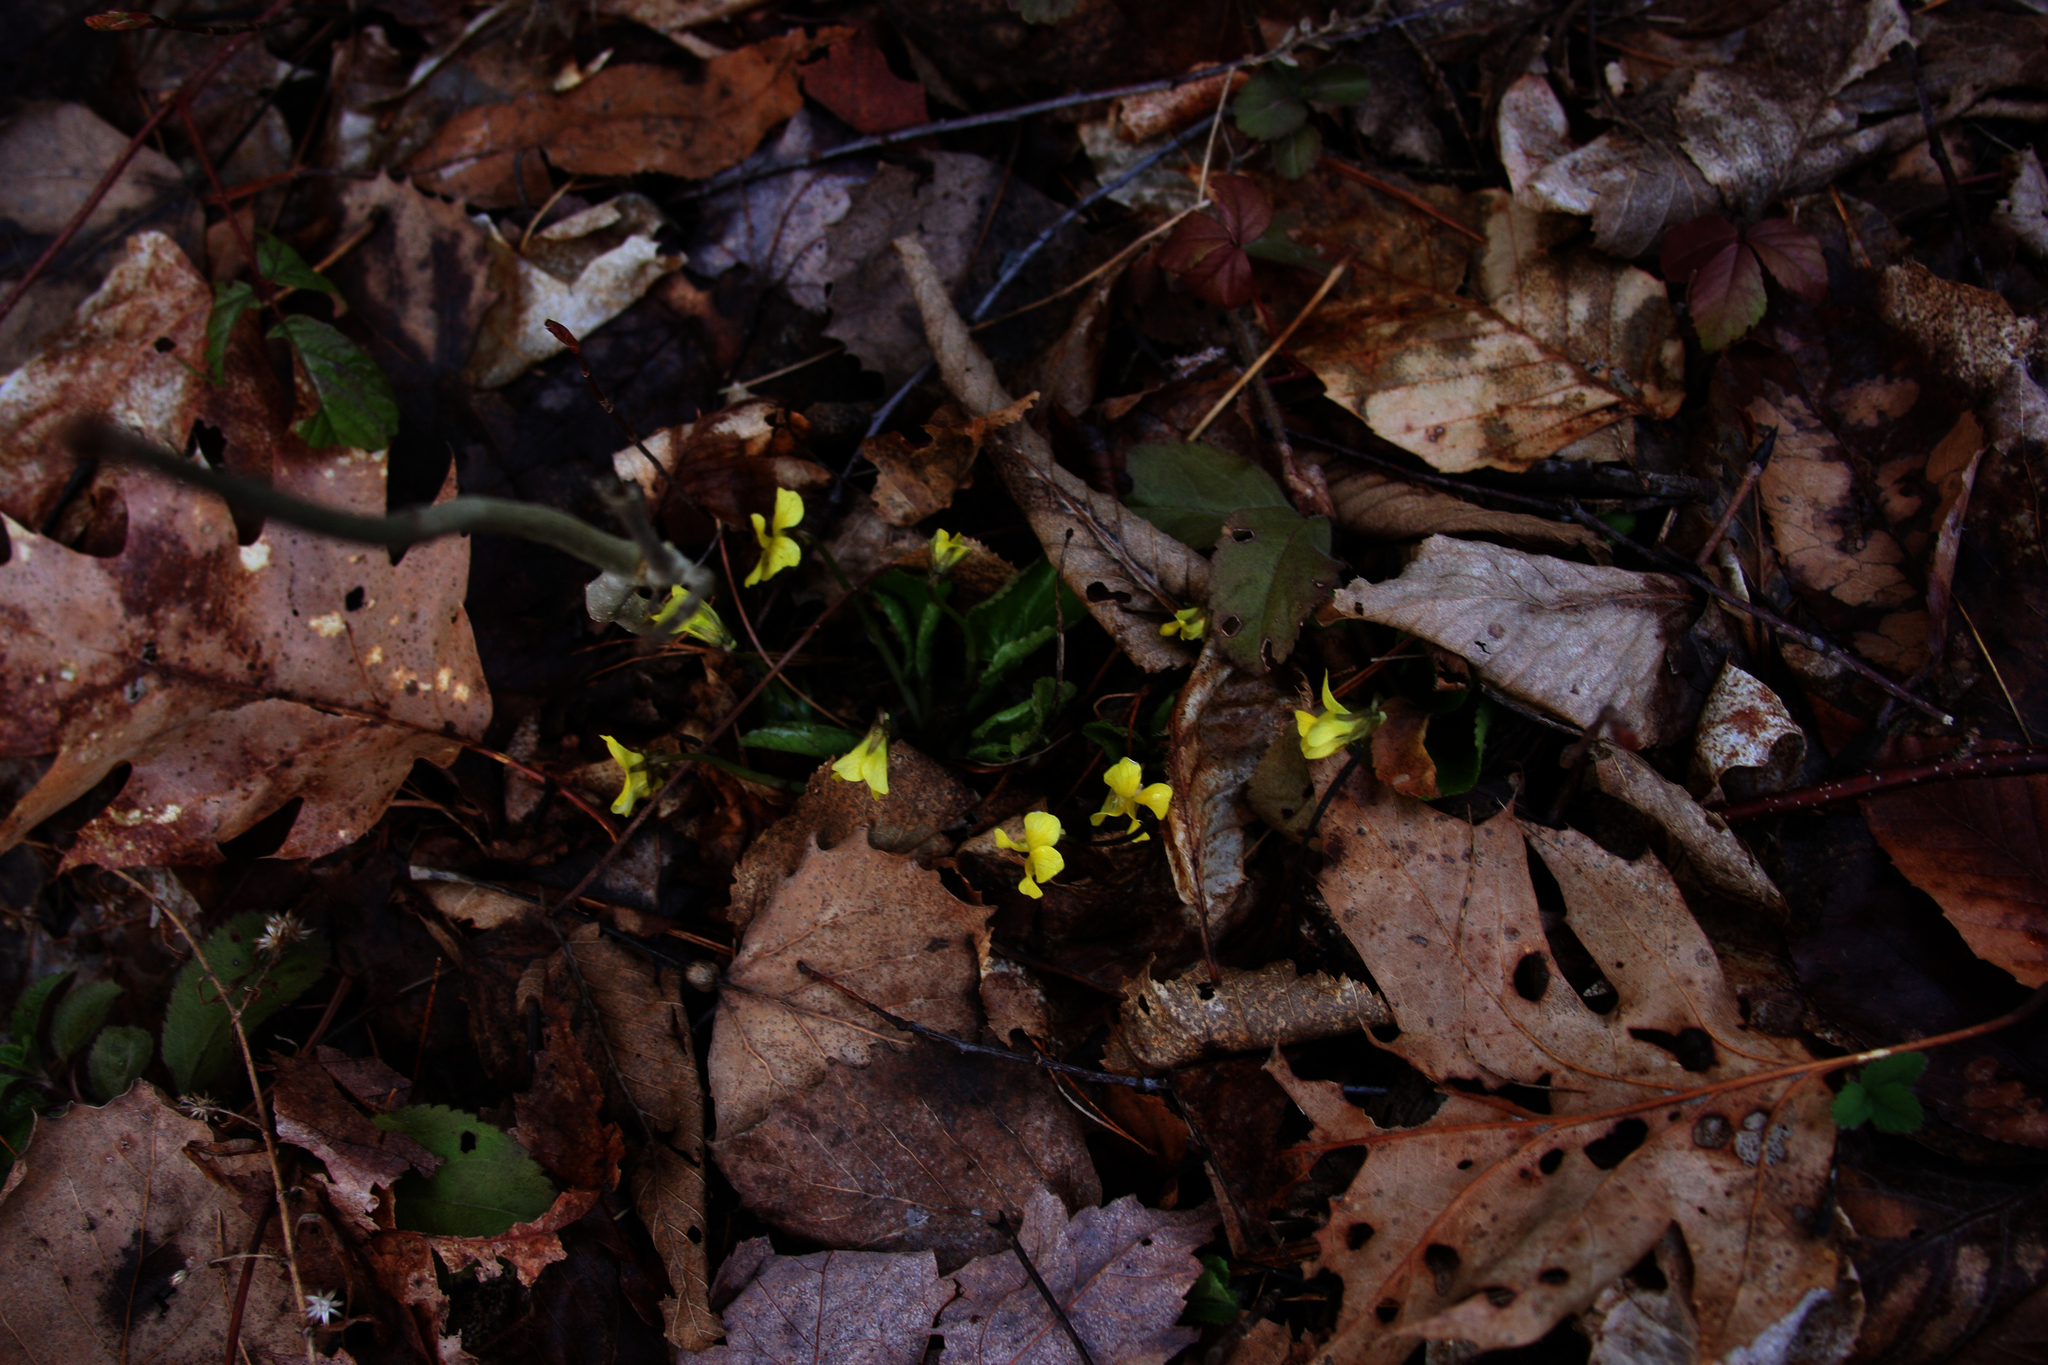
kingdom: Plantae
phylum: Tracheophyta
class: Magnoliopsida
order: Malpighiales
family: Violaceae
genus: Viola
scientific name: Viola rotundifolia
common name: Early yellow violet
